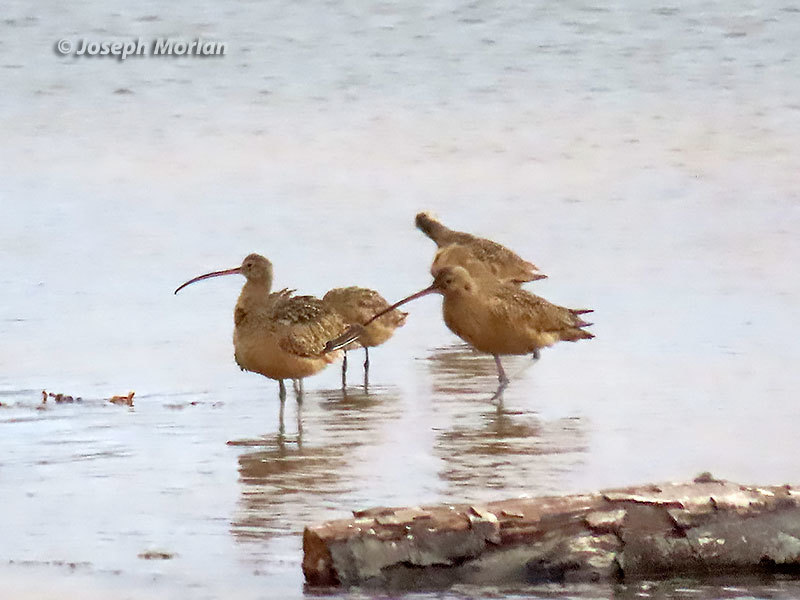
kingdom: Animalia
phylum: Chordata
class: Aves
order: Charadriiformes
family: Scolopacidae
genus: Numenius
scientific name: Numenius americanus
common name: Long-billed curlew
